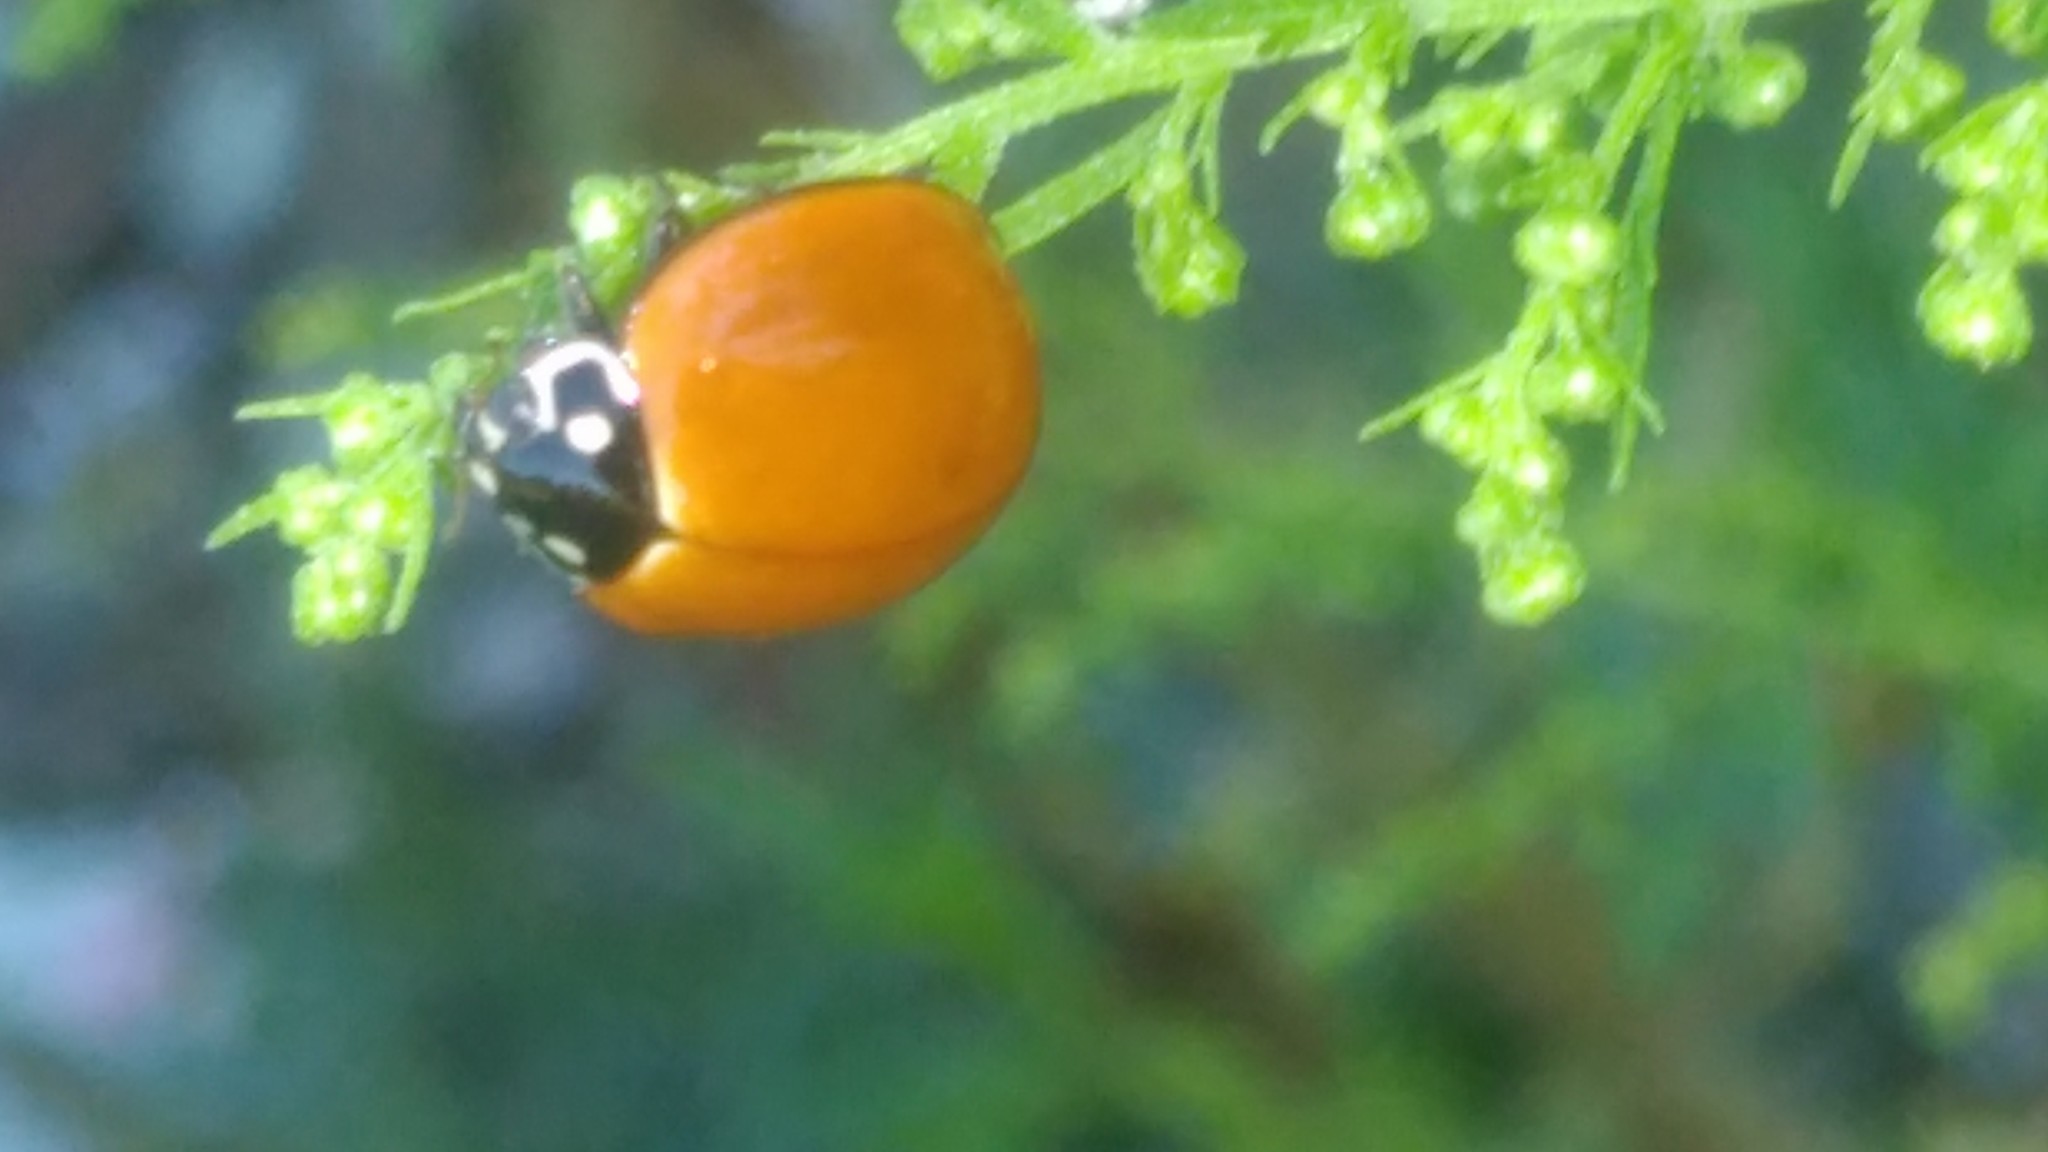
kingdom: Animalia
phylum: Arthropoda
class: Insecta
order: Coleoptera
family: Coccinellidae
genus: Cycloneda
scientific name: Cycloneda sanguinea
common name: Ladybird beetle
